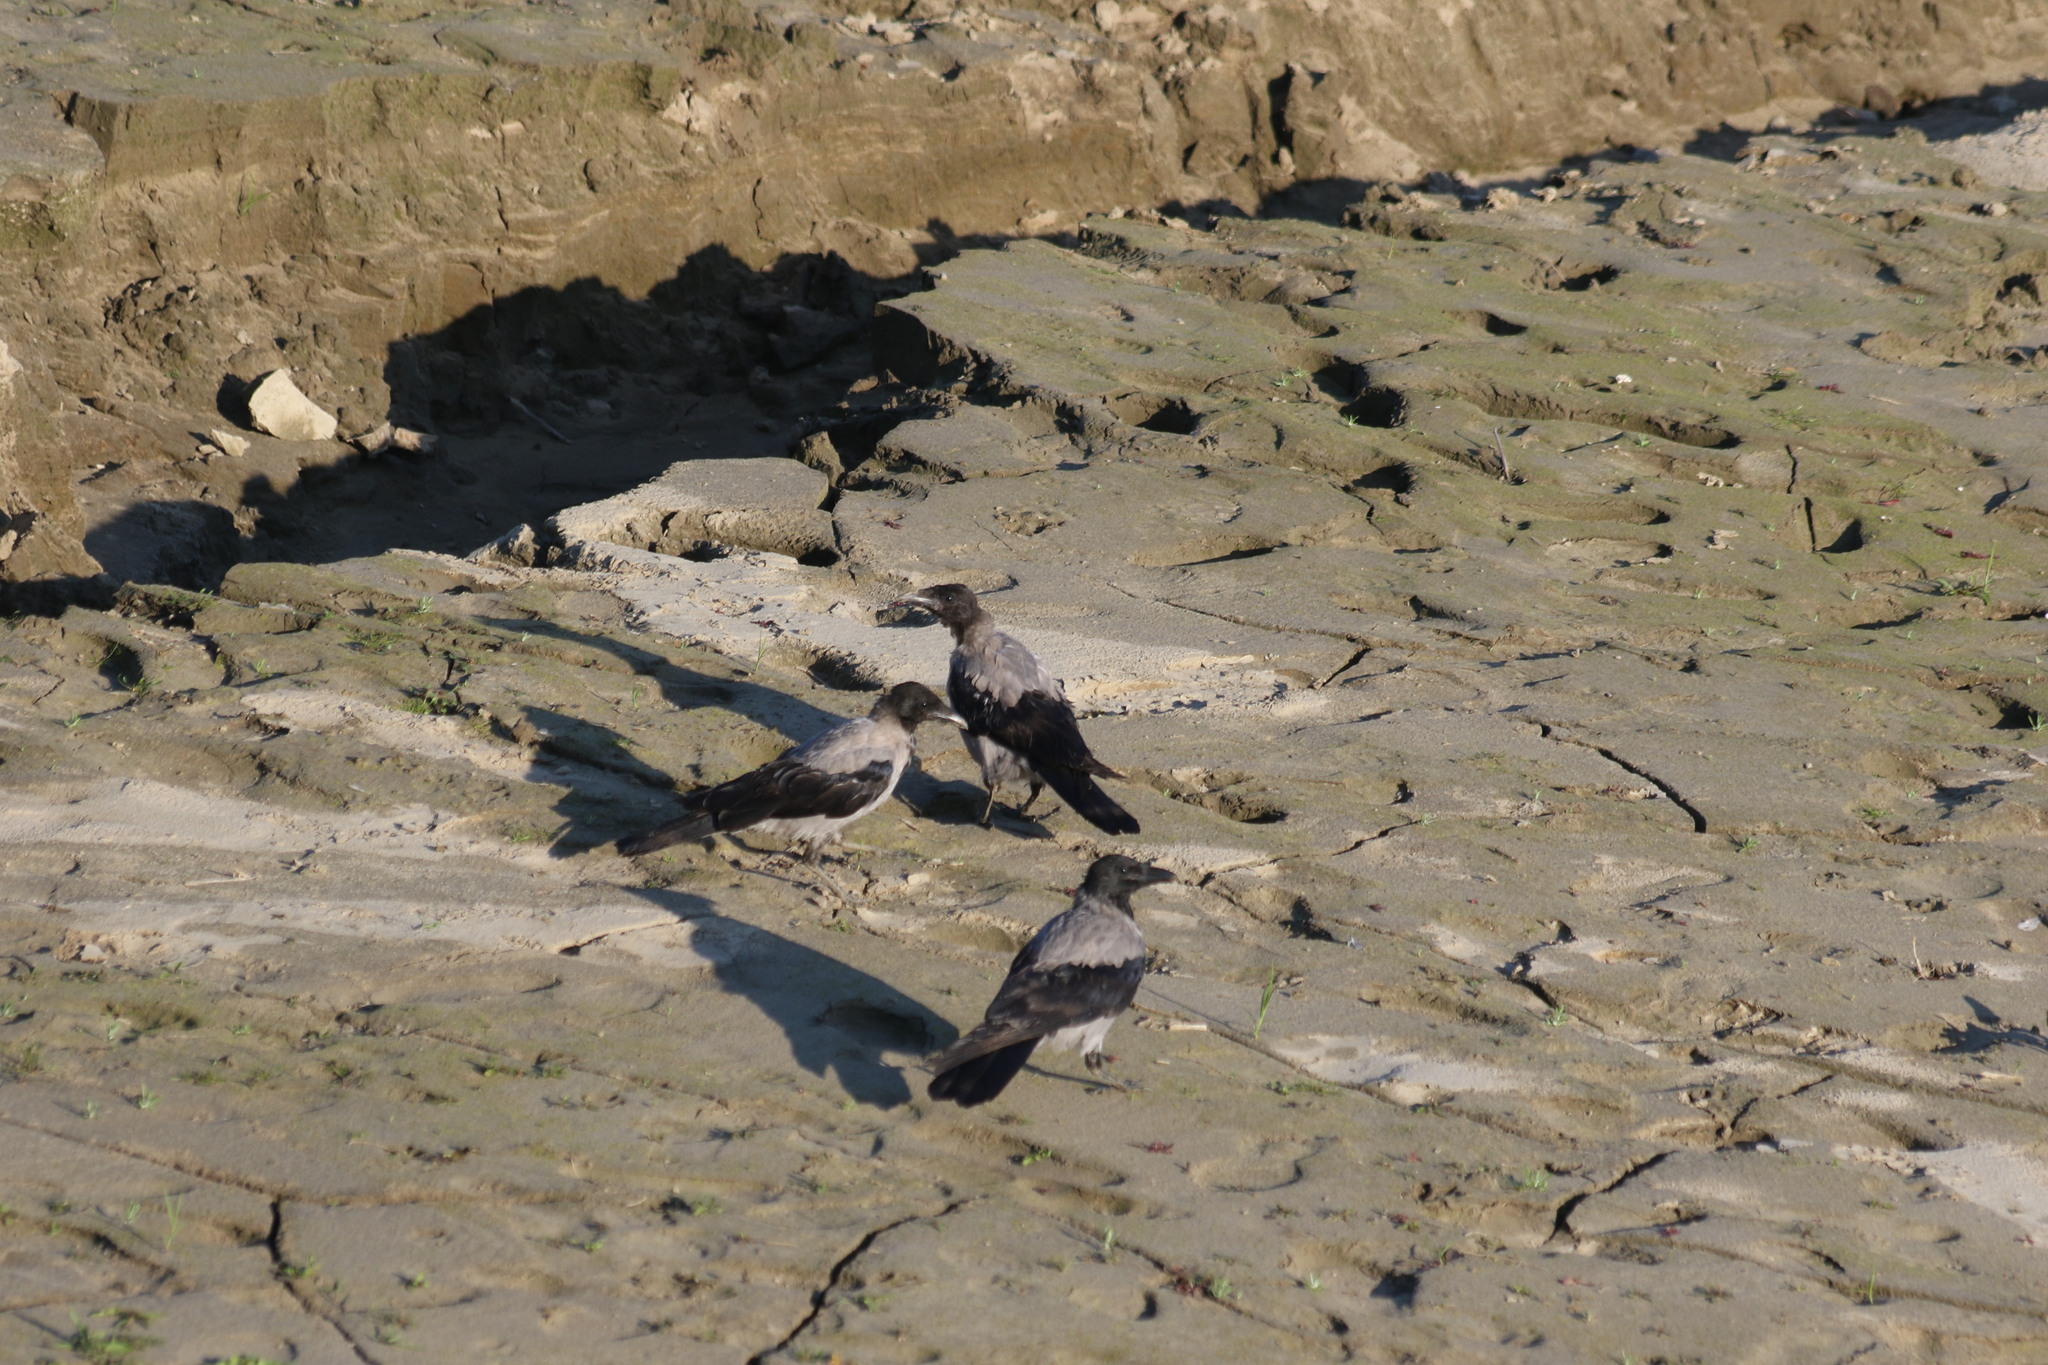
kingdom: Animalia
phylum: Chordata
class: Aves
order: Passeriformes
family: Corvidae
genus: Corvus
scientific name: Corvus cornix
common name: Hooded crow
